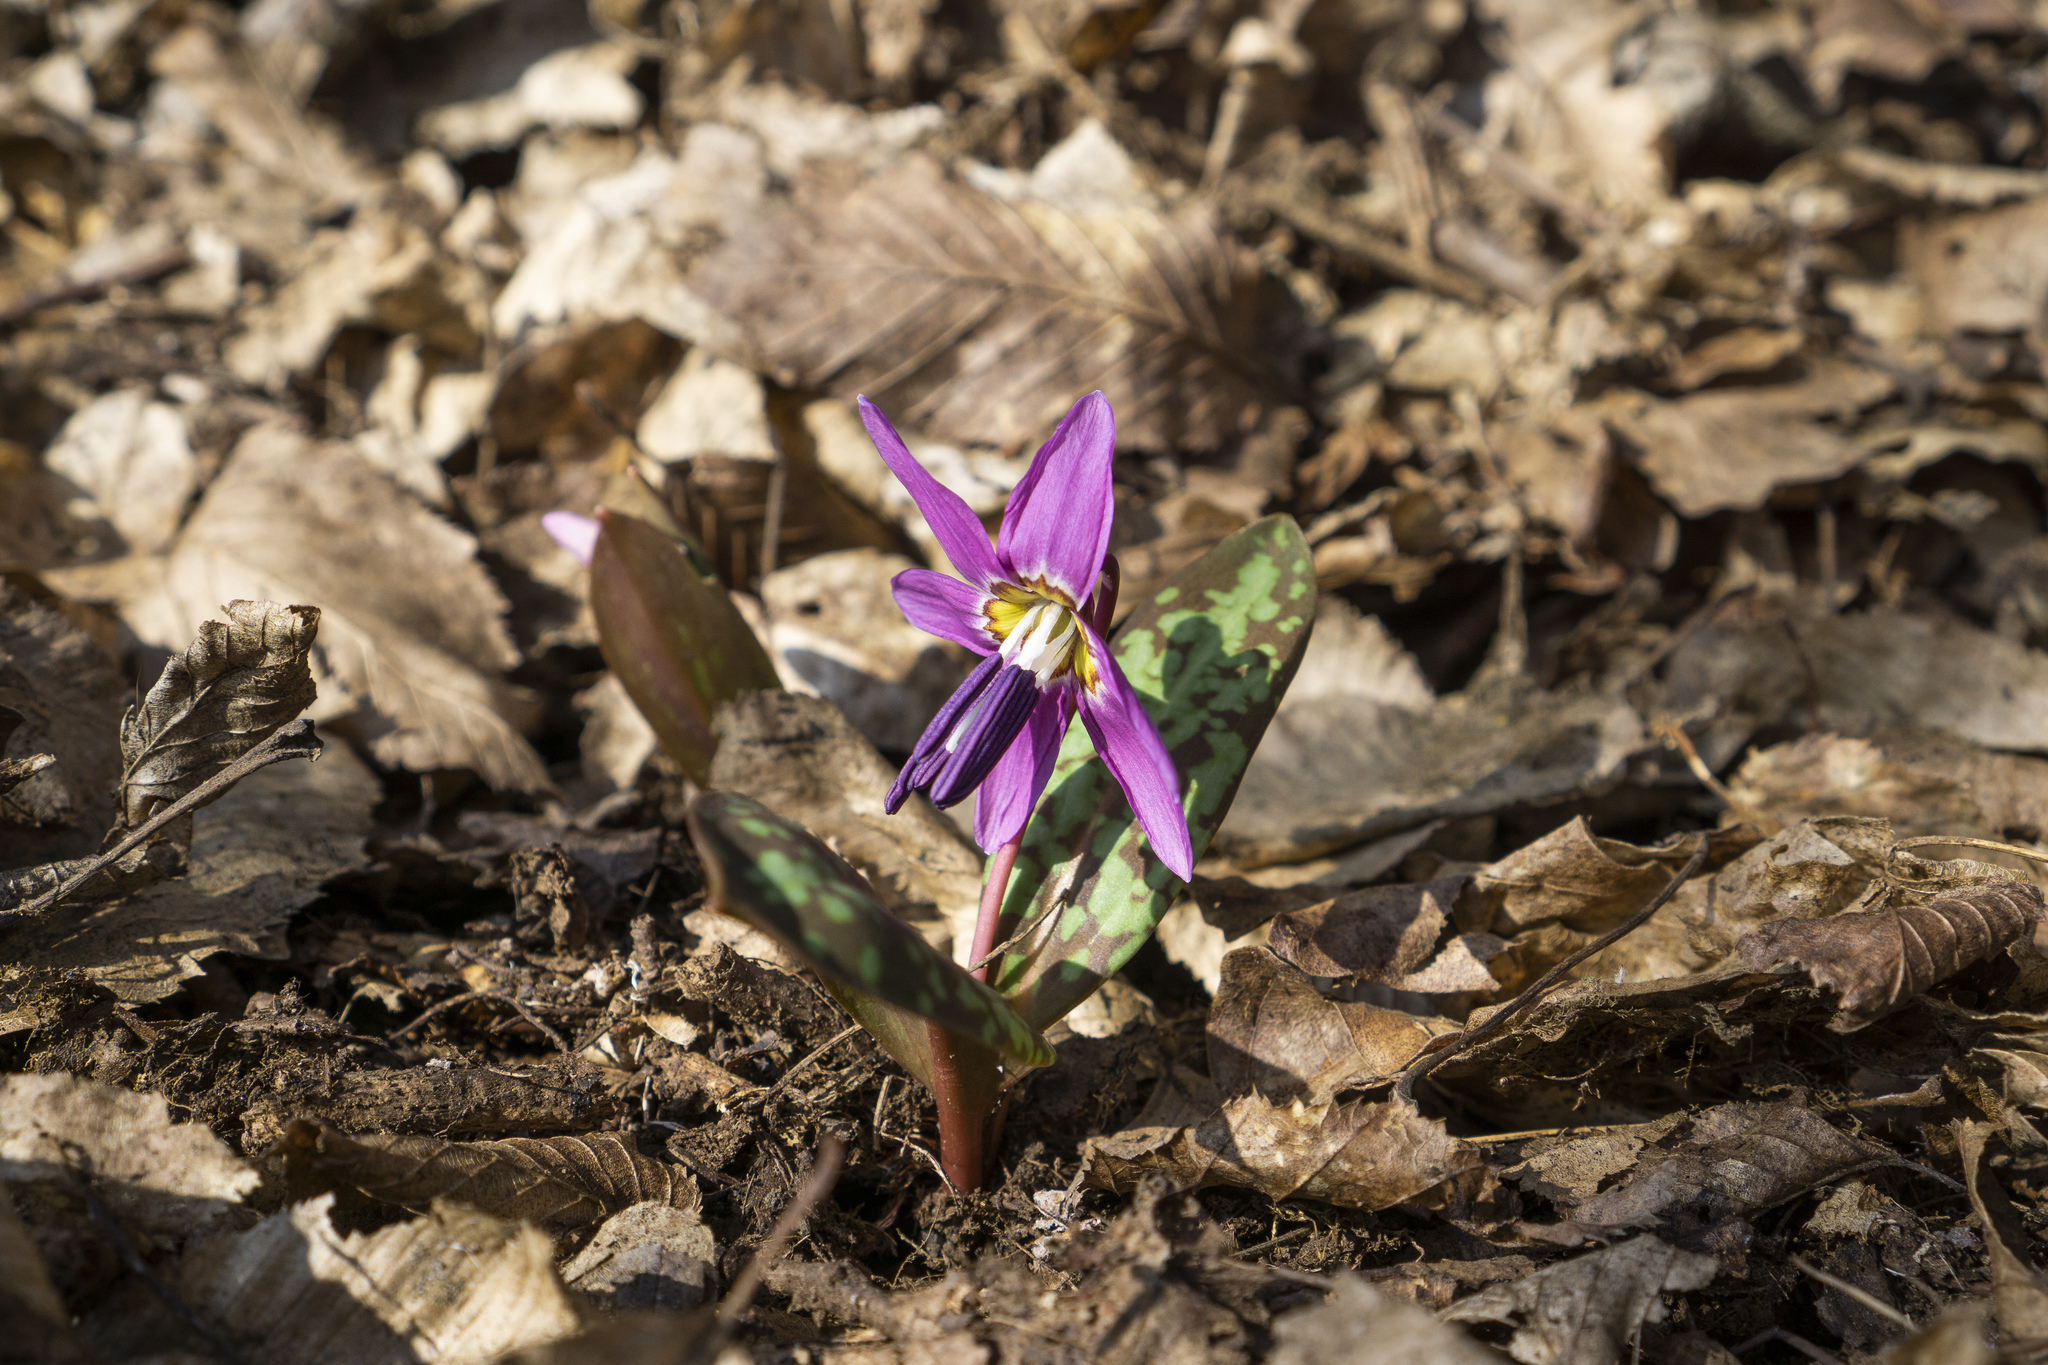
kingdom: Plantae
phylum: Tracheophyta
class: Liliopsida
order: Liliales
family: Liliaceae
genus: Erythronium
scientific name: Erythronium dens-canis
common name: Dog's-tooth-violet
